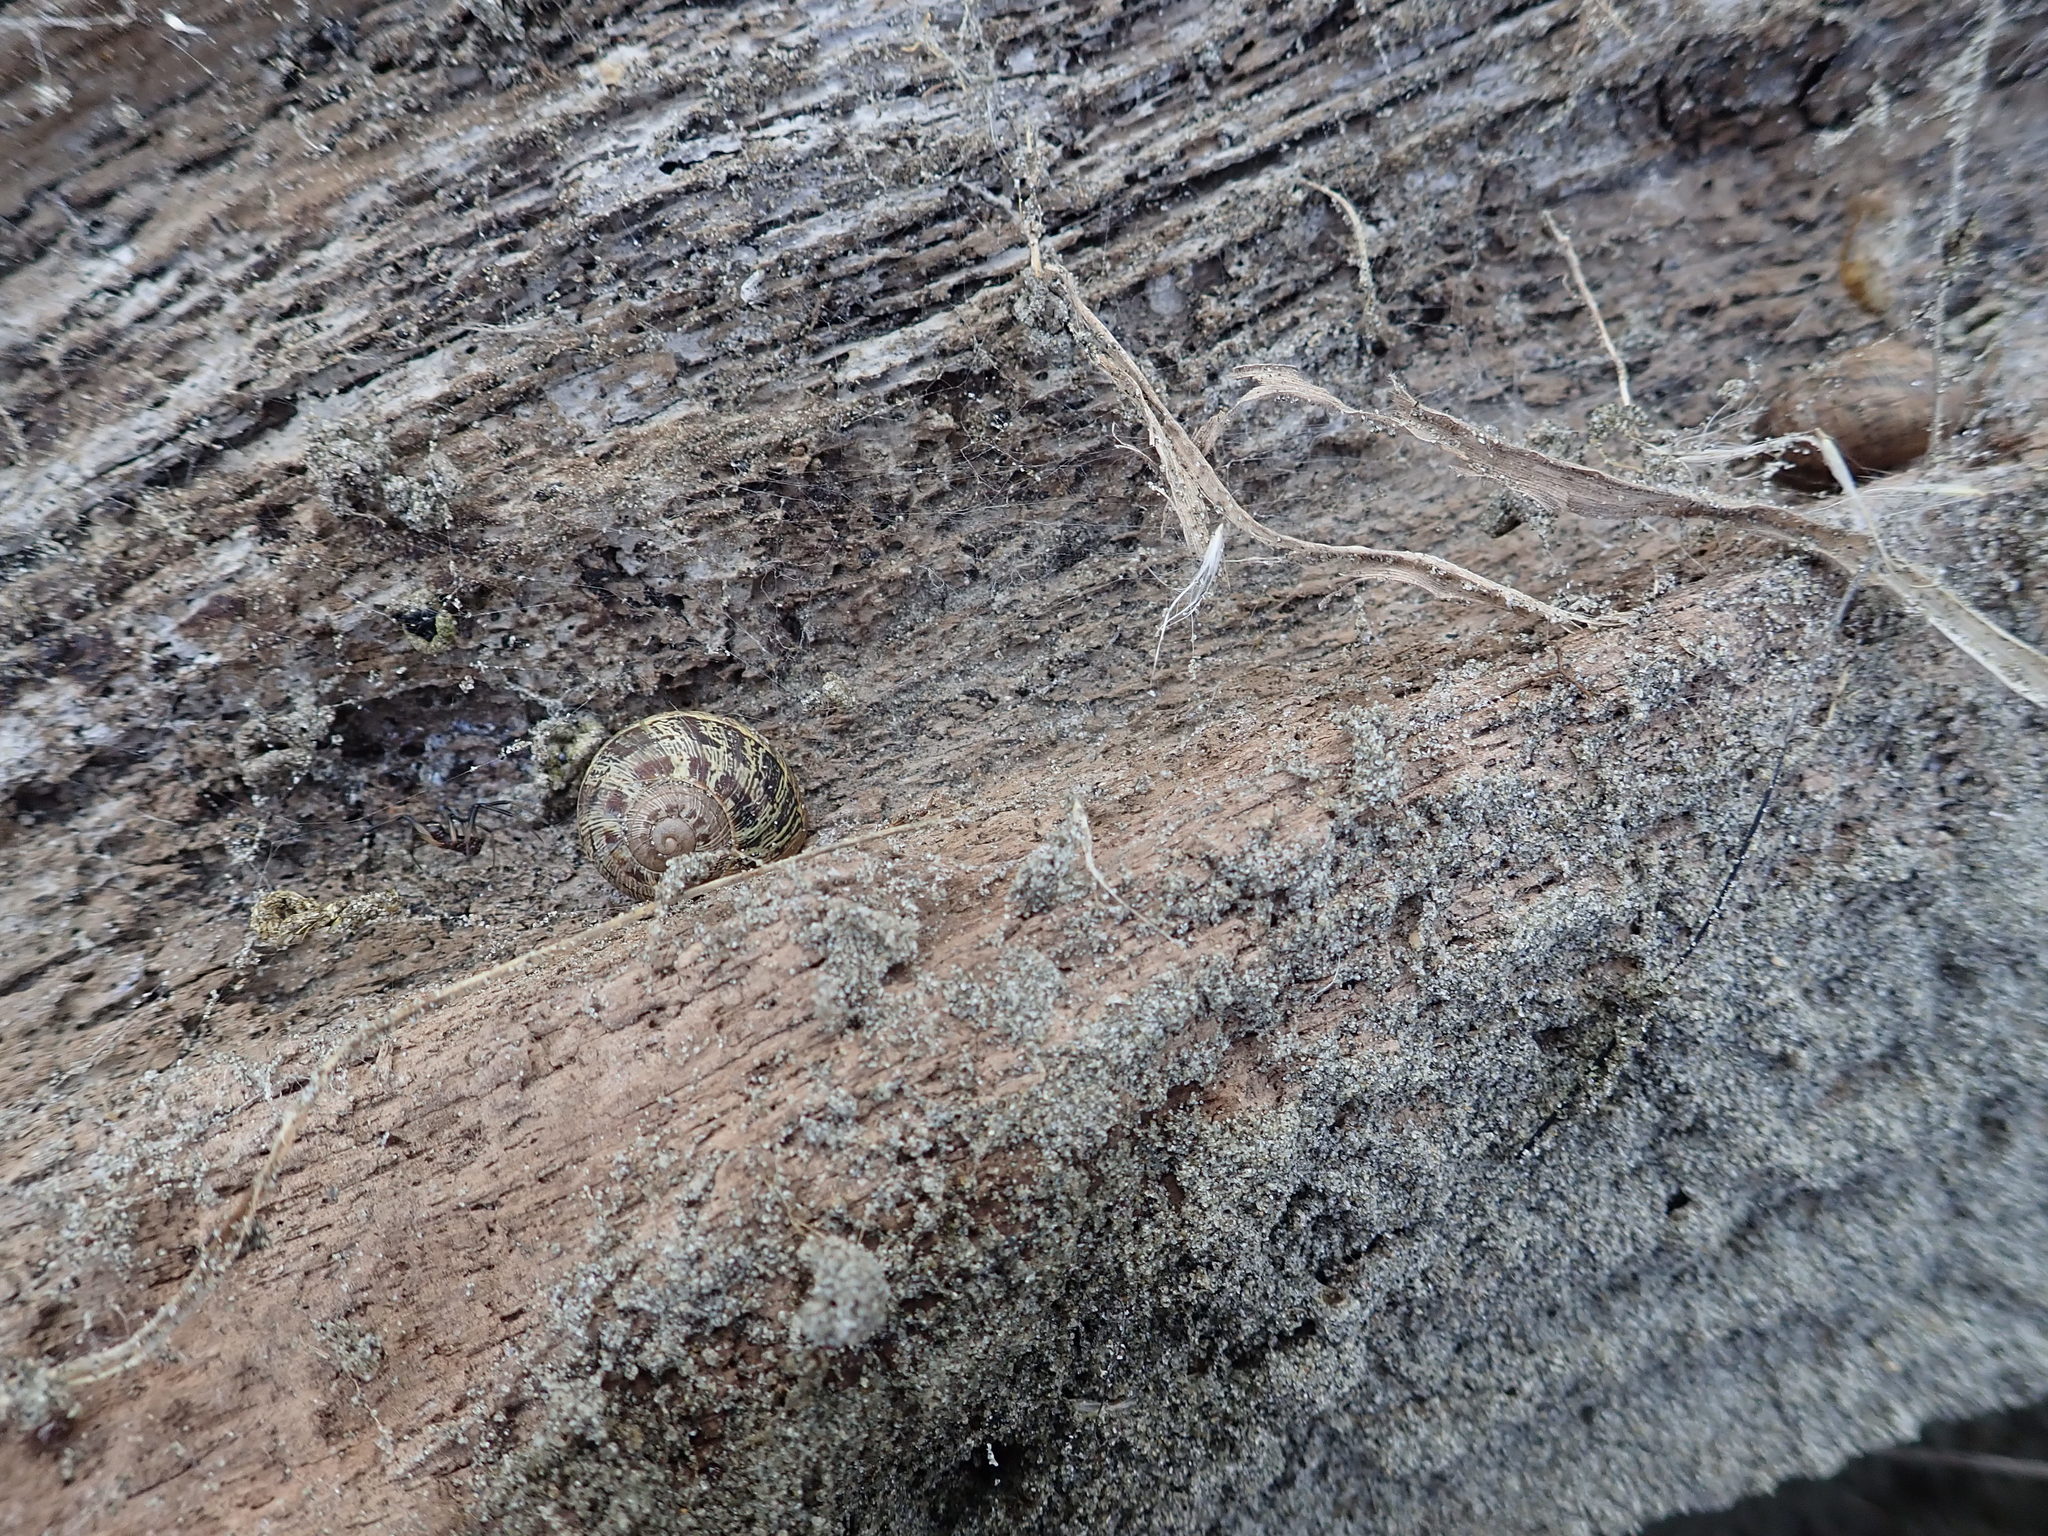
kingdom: Animalia
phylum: Mollusca
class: Gastropoda
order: Stylommatophora
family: Helicidae
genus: Cornu
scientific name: Cornu aspersum
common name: Brown garden snail
